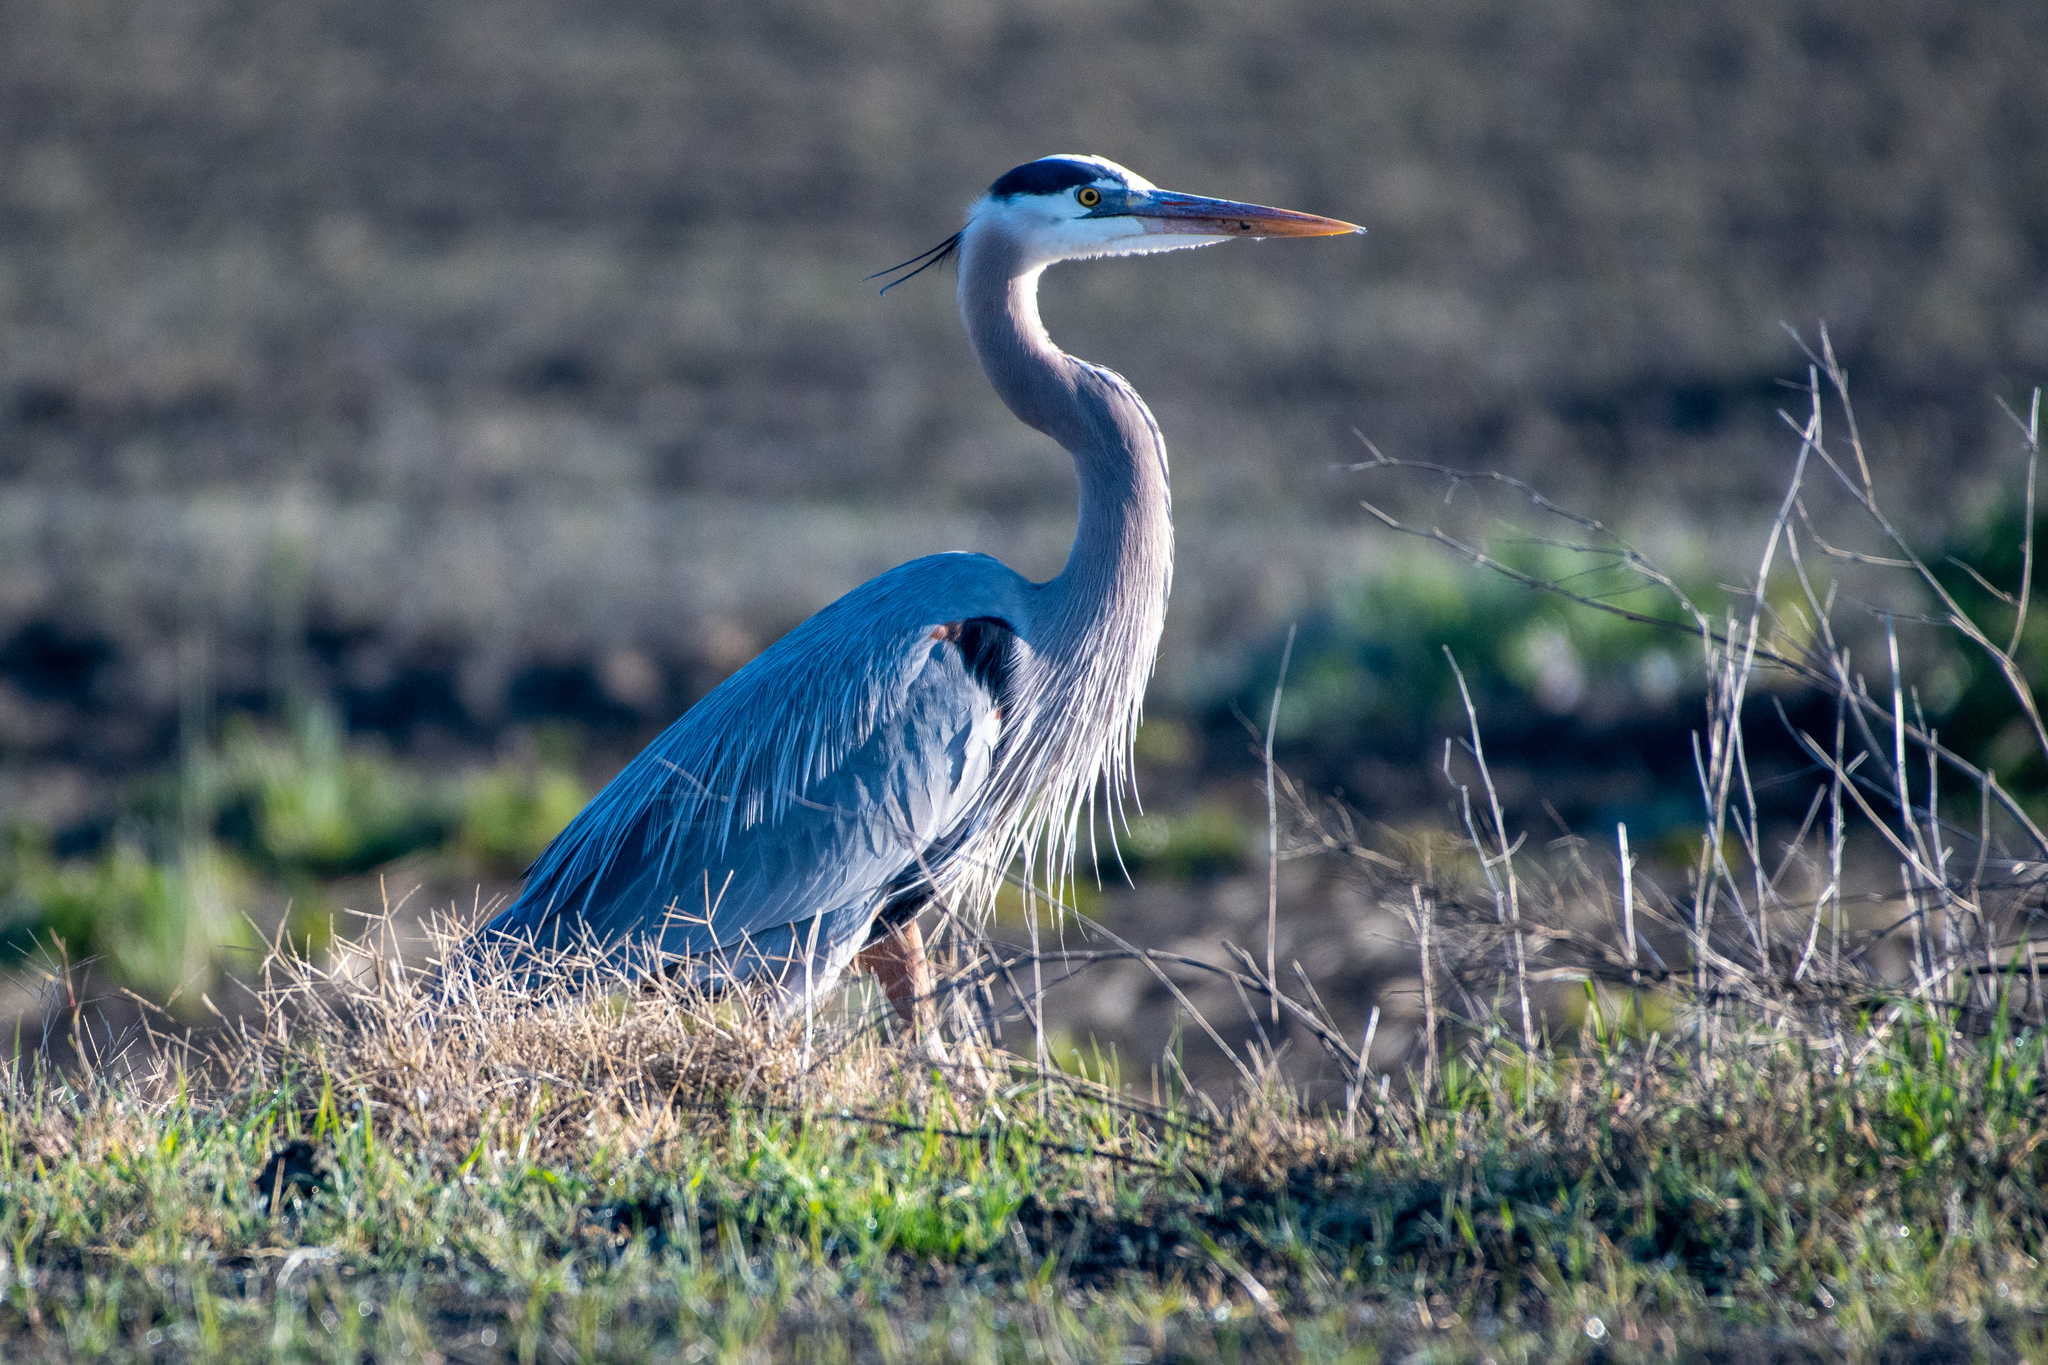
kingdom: Animalia
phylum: Chordata
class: Aves
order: Pelecaniformes
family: Ardeidae
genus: Ardea
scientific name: Ardea herodias
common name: Great blue heron
